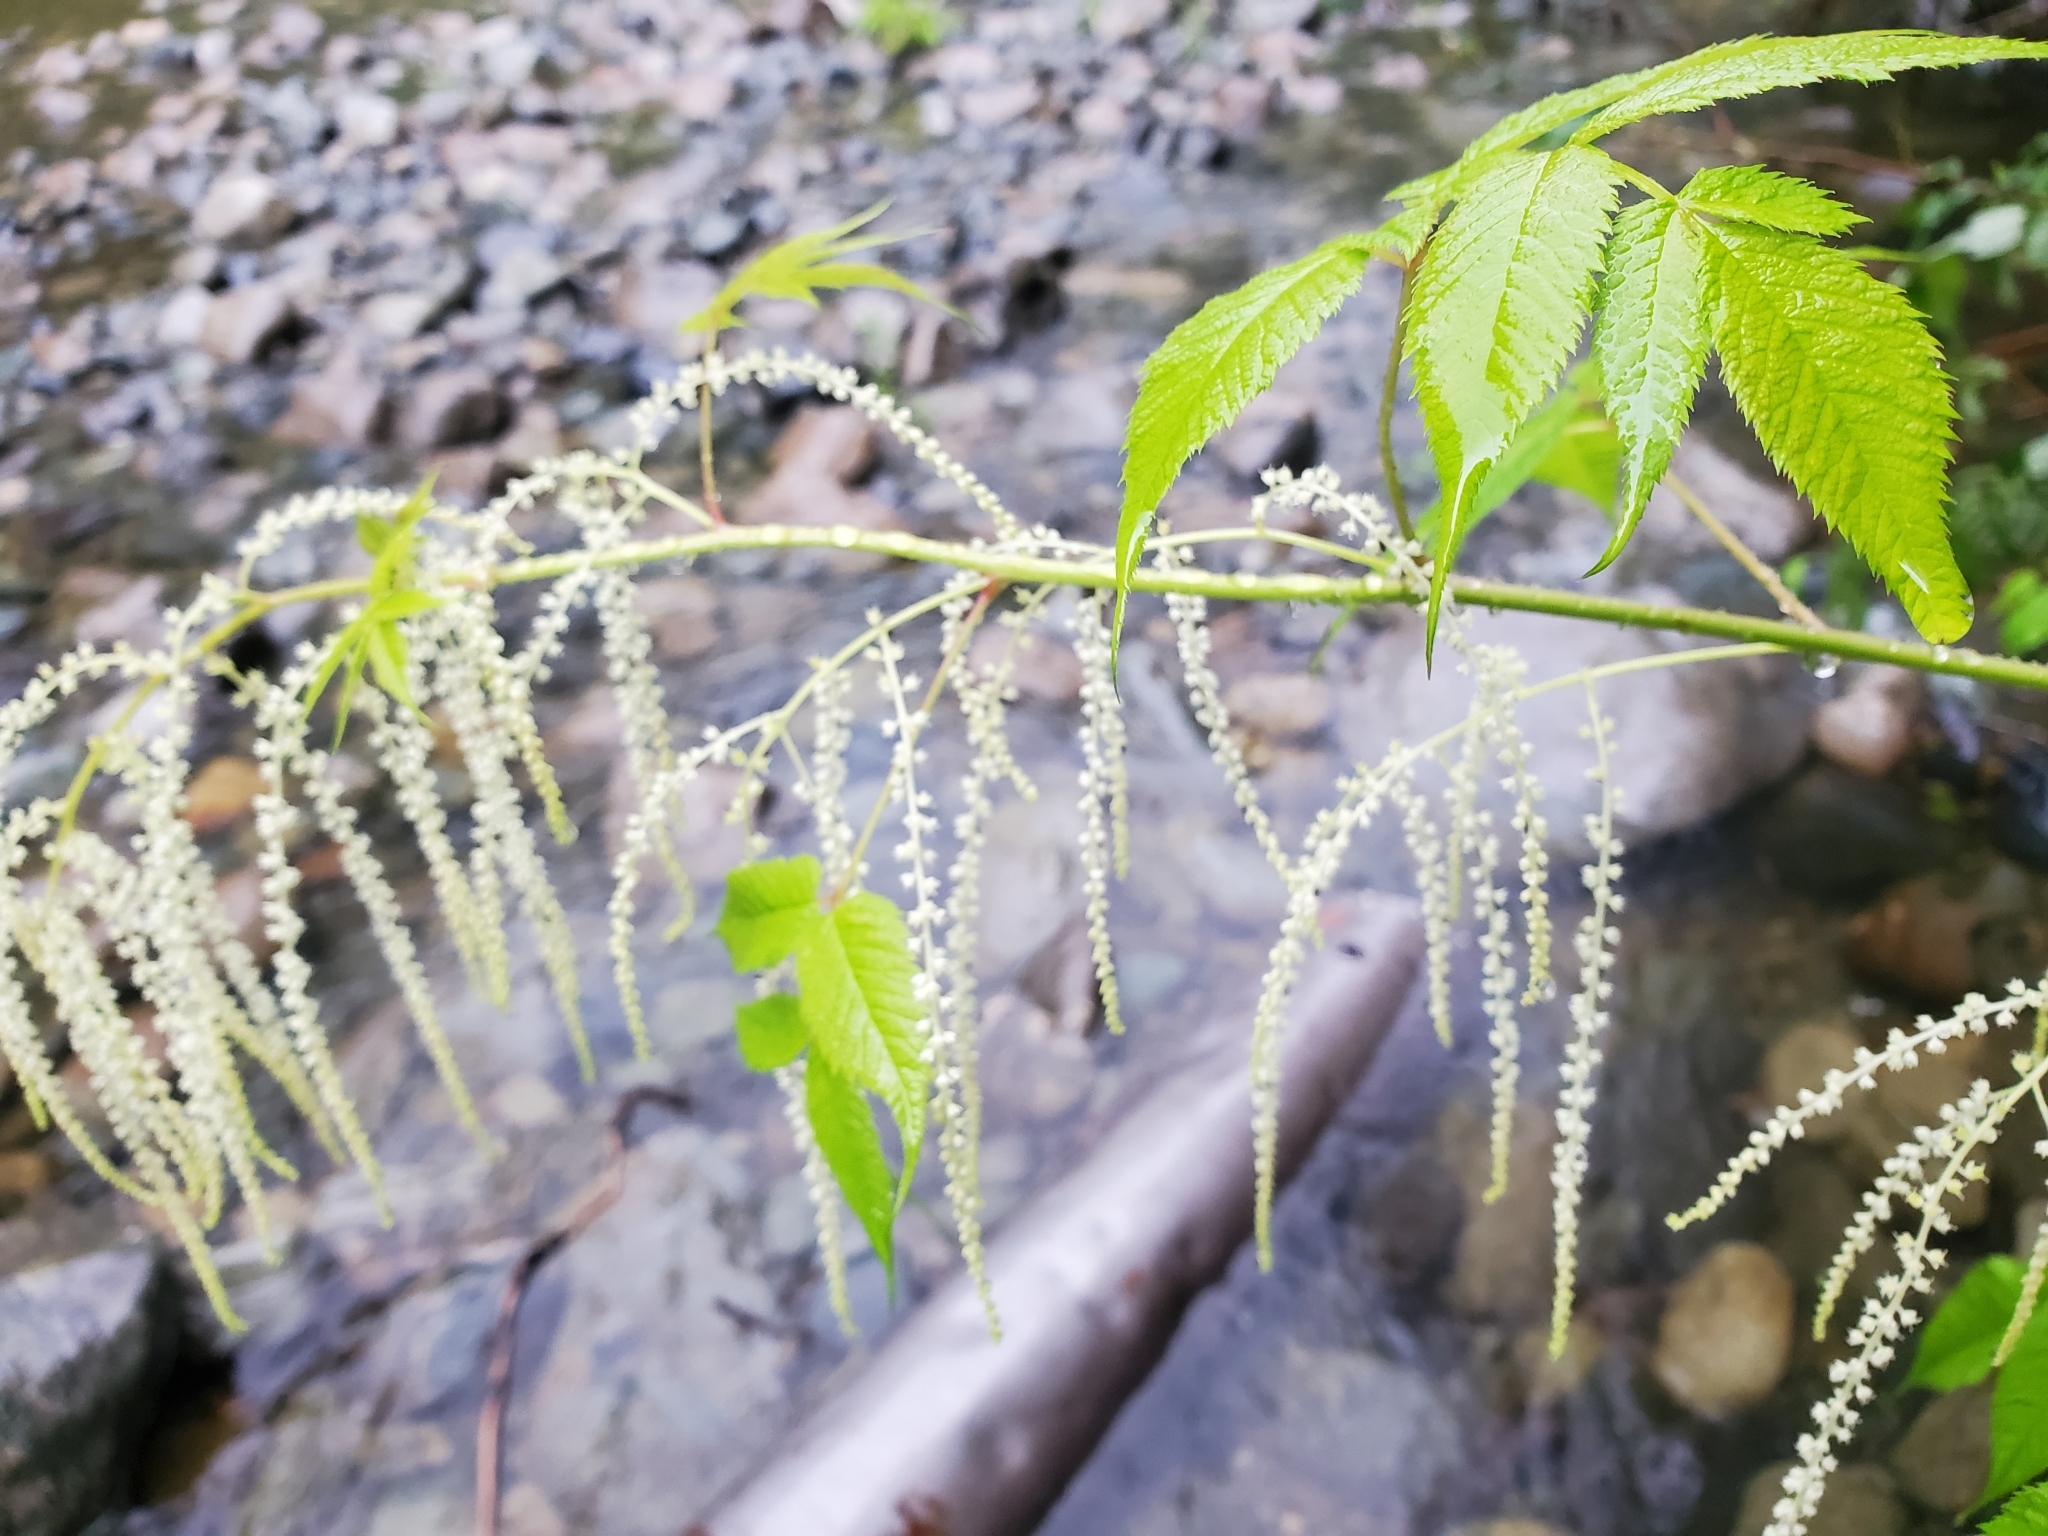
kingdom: Plantae
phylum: Tracheophyta
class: Magnoliopsida
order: Rosales
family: Rosaceae
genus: Aruncus
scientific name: Aruncus dioicus
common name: Buck's-beard
